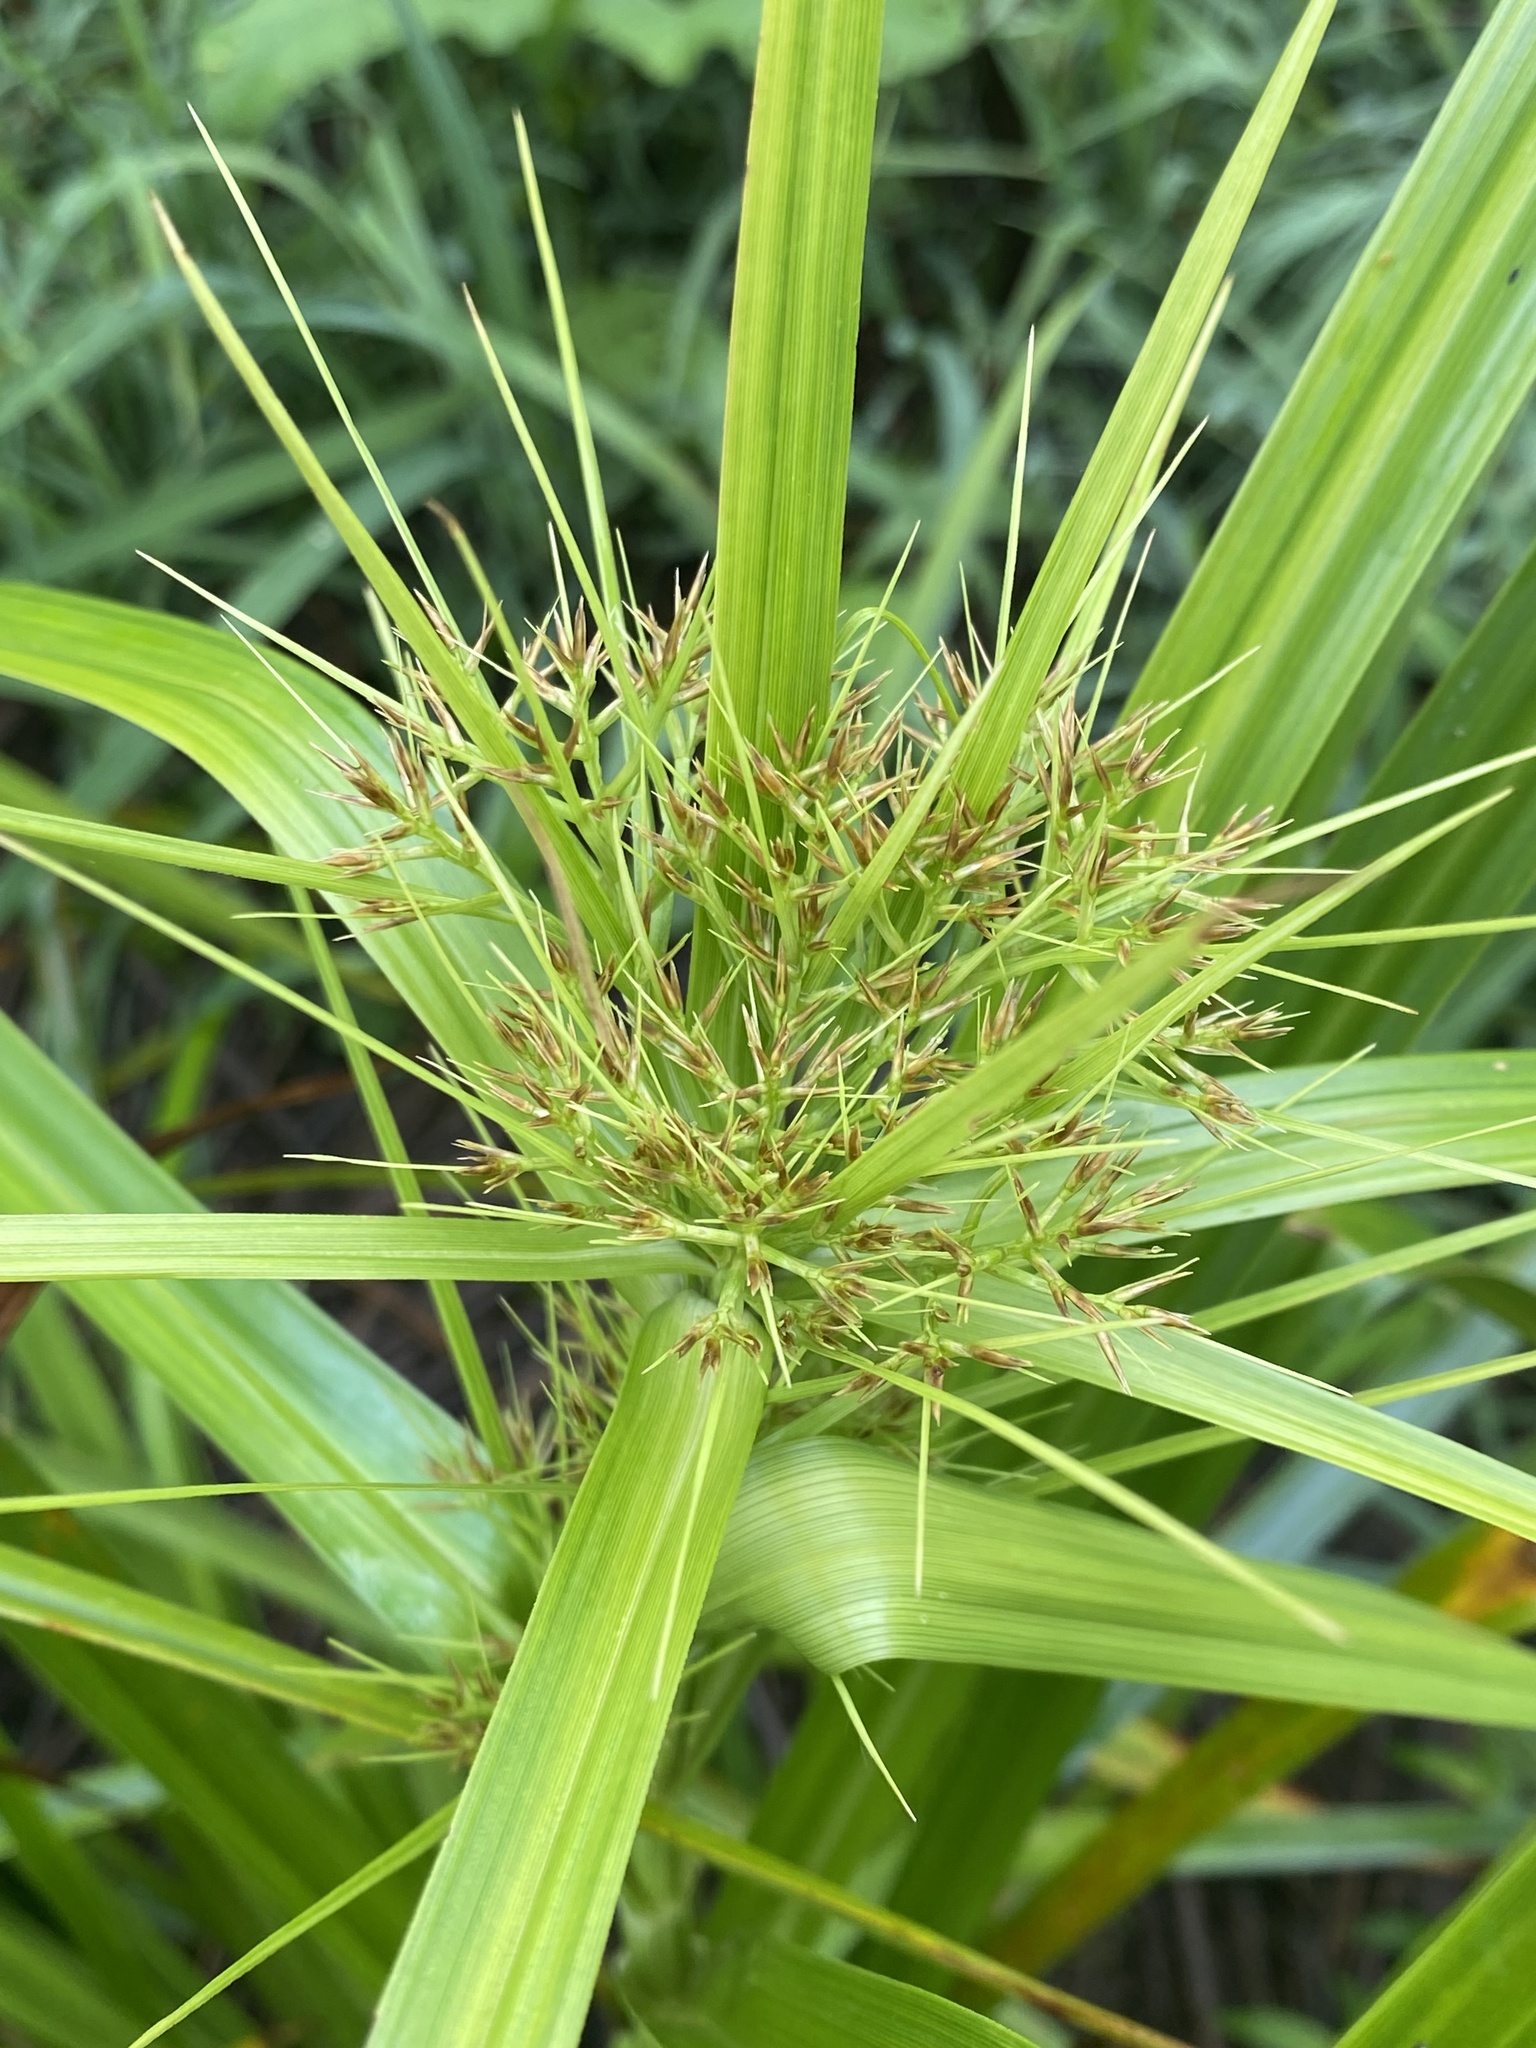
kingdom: Plantae
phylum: Tracheophyta
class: Liliopsida
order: Poales
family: Cyperaceae
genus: Rhynchospora
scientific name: Rhynchospora corniculata
